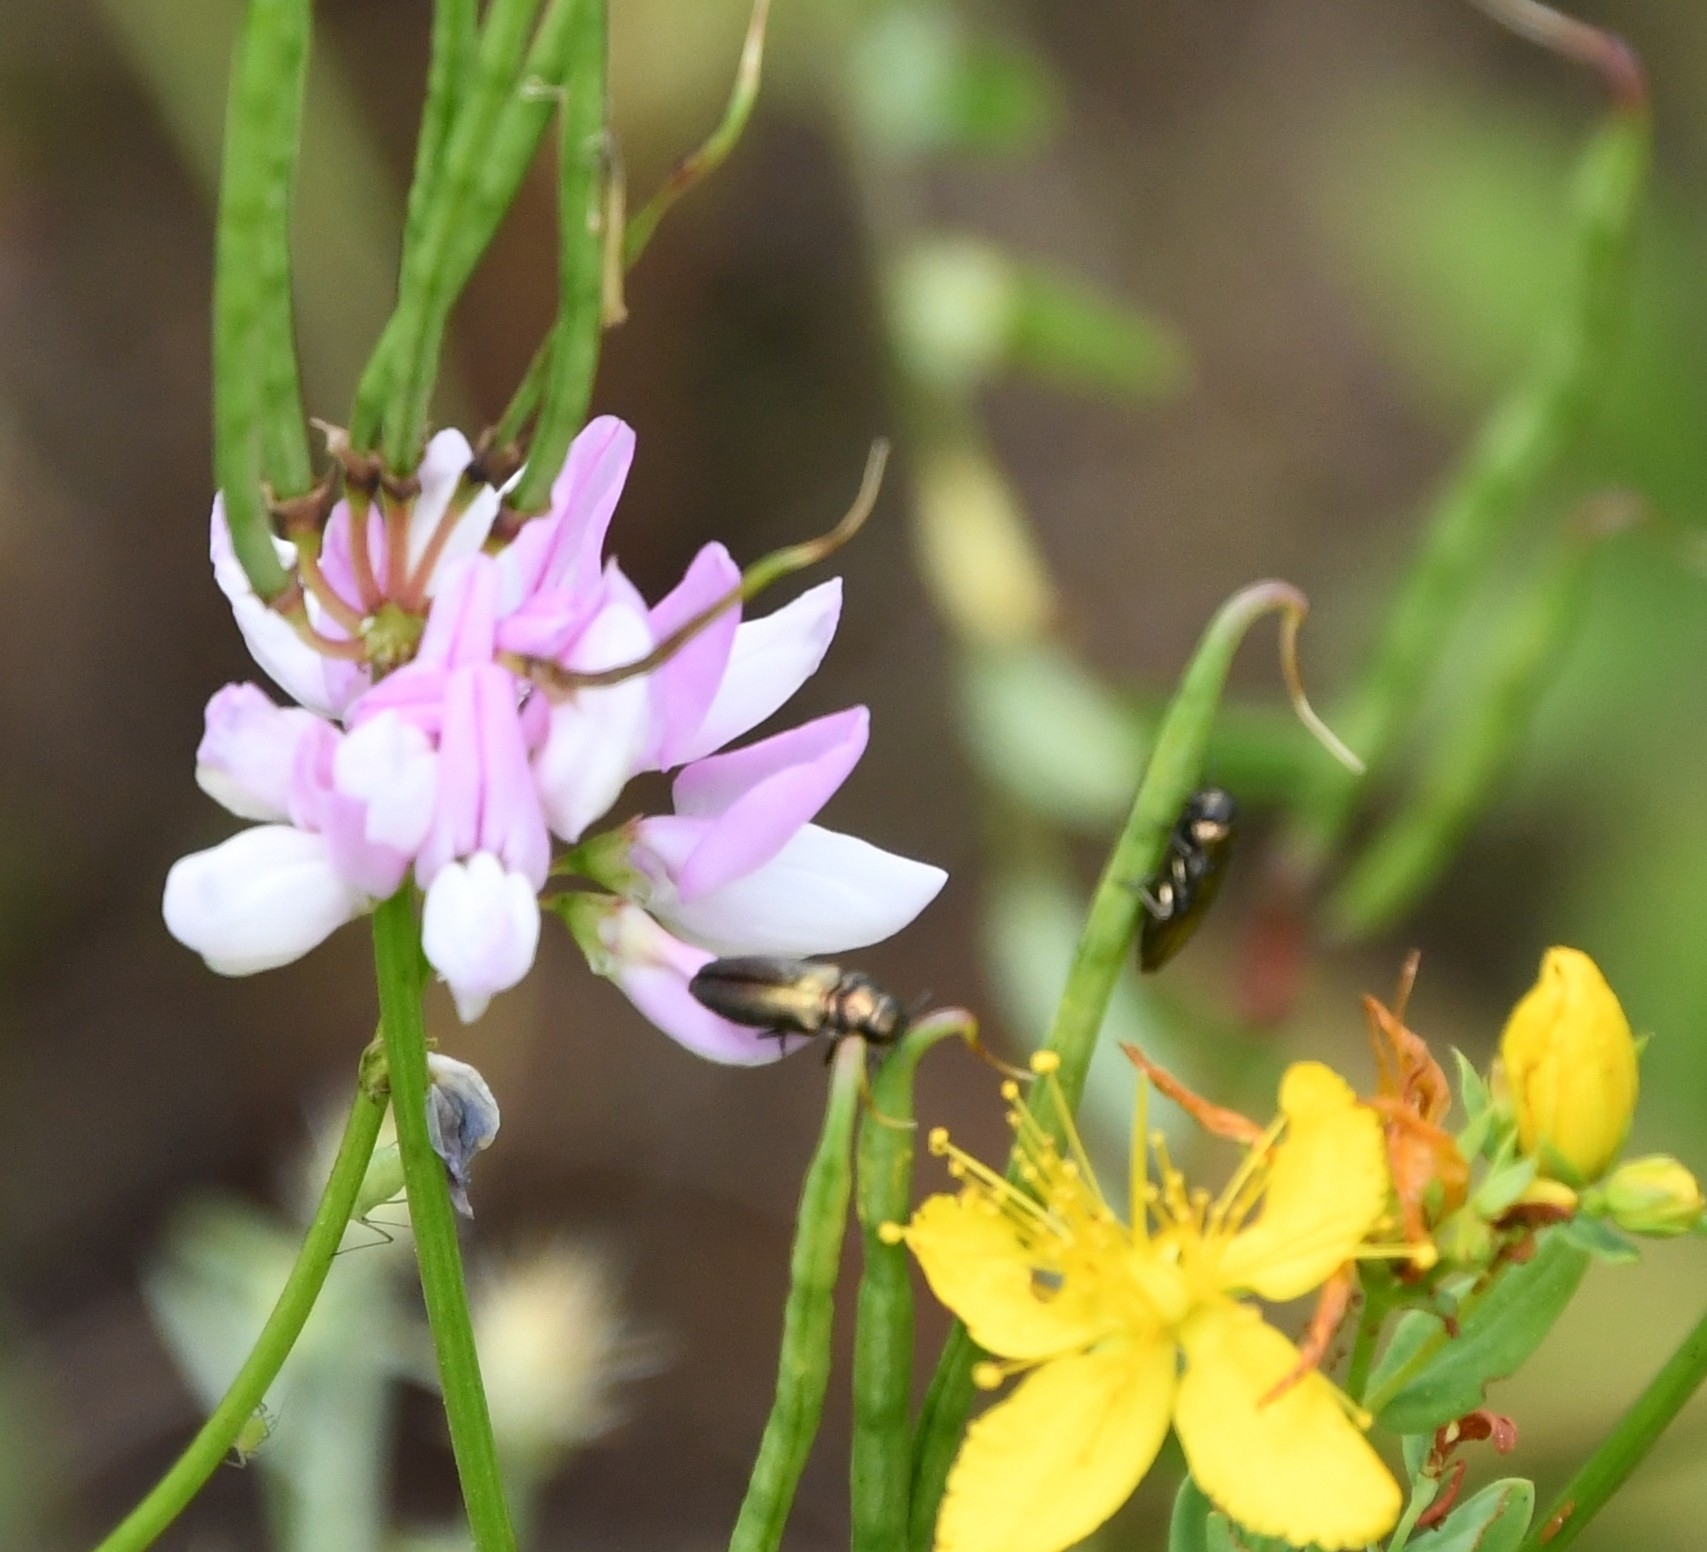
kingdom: Animalia
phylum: Arthropoda
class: Insecta
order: Coleoptera
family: Buprestidae
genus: Coraebus
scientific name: Coraebus elatus
